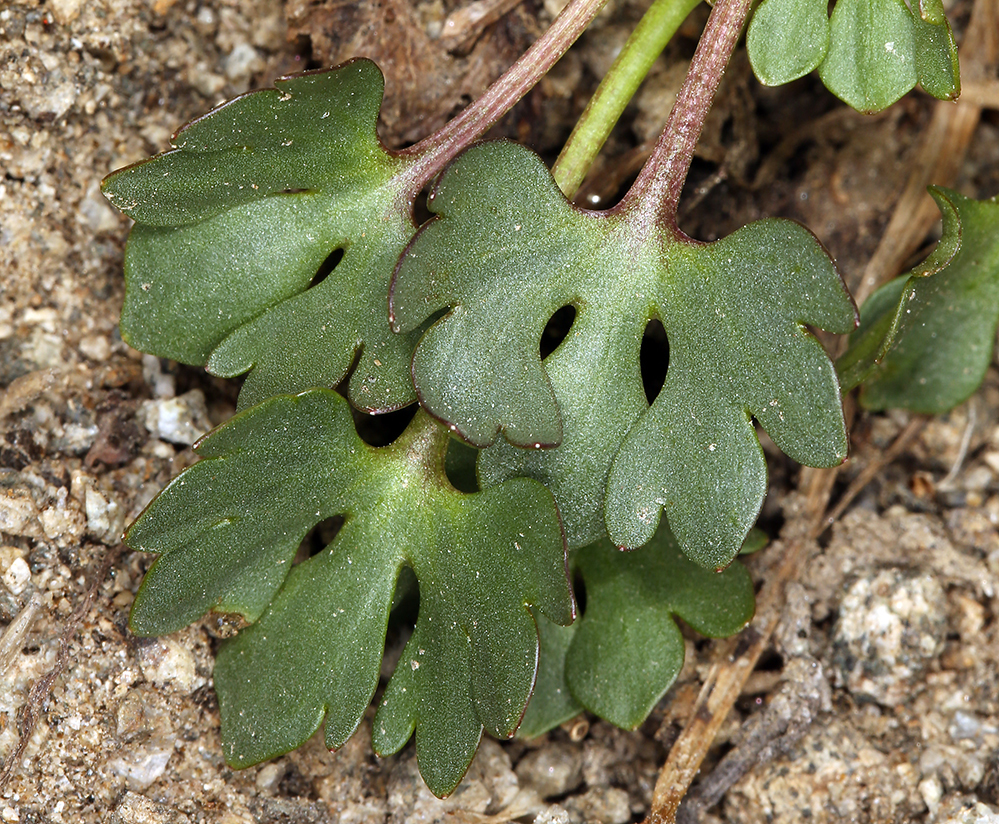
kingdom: Plantae
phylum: Tracheophyta
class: Magnoliopsida
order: Ranunculales
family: Ranunculaceae
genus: Ranunculus
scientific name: Ranunculus eschscholtzii
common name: Eschscholtz's buttercup
